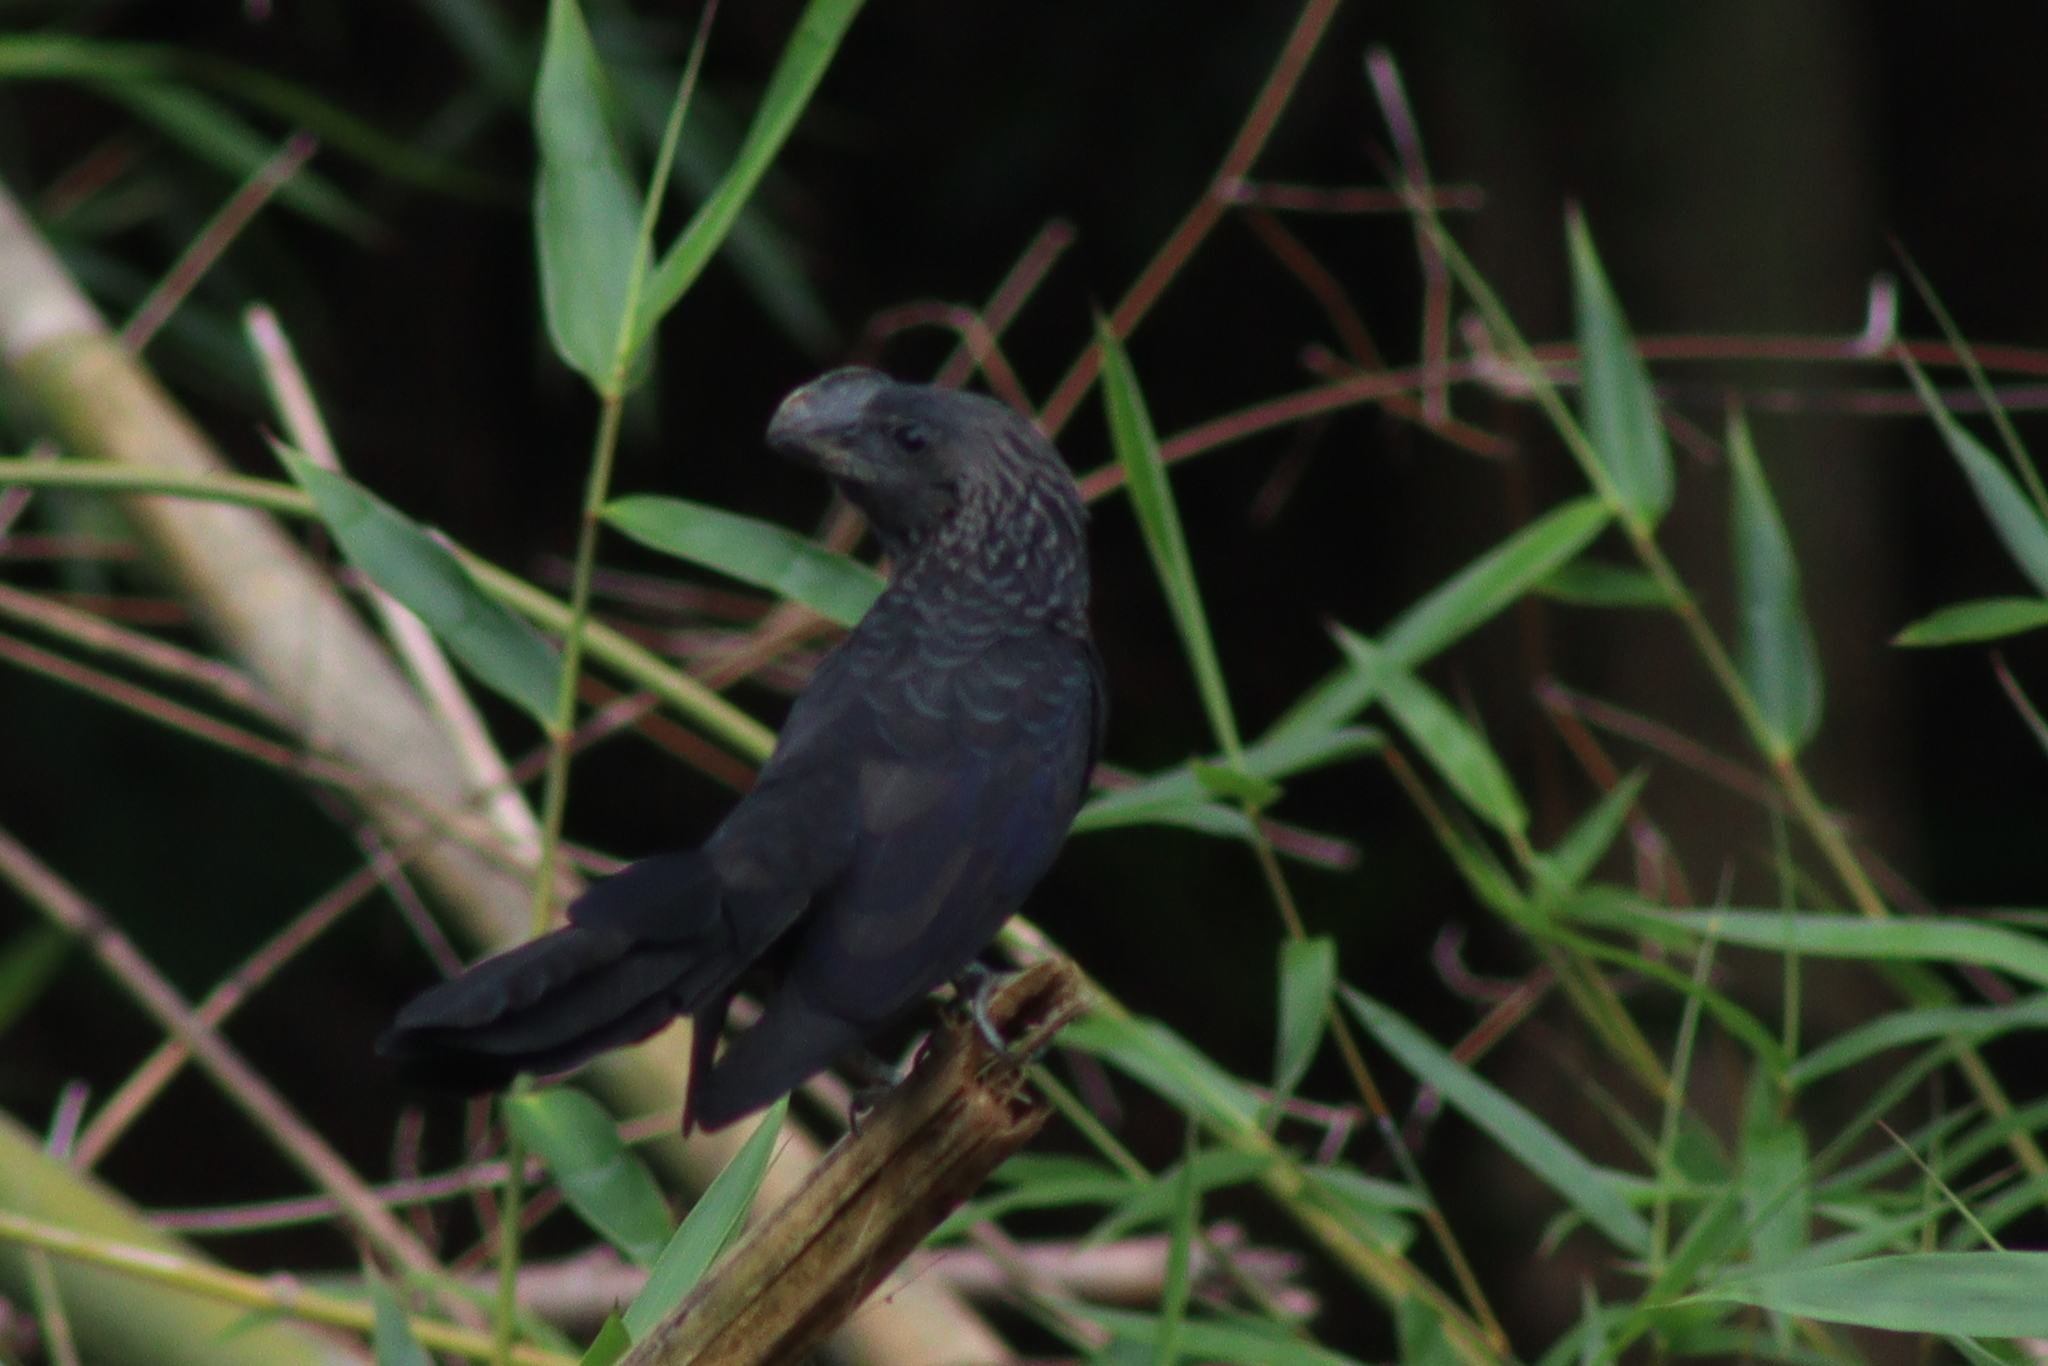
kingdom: Animalia
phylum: Chordata
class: Aves
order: Cuculiformes
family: Cuculidae
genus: Crotophaga
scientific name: Crotophaga ani
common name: Smooth-billed ani
